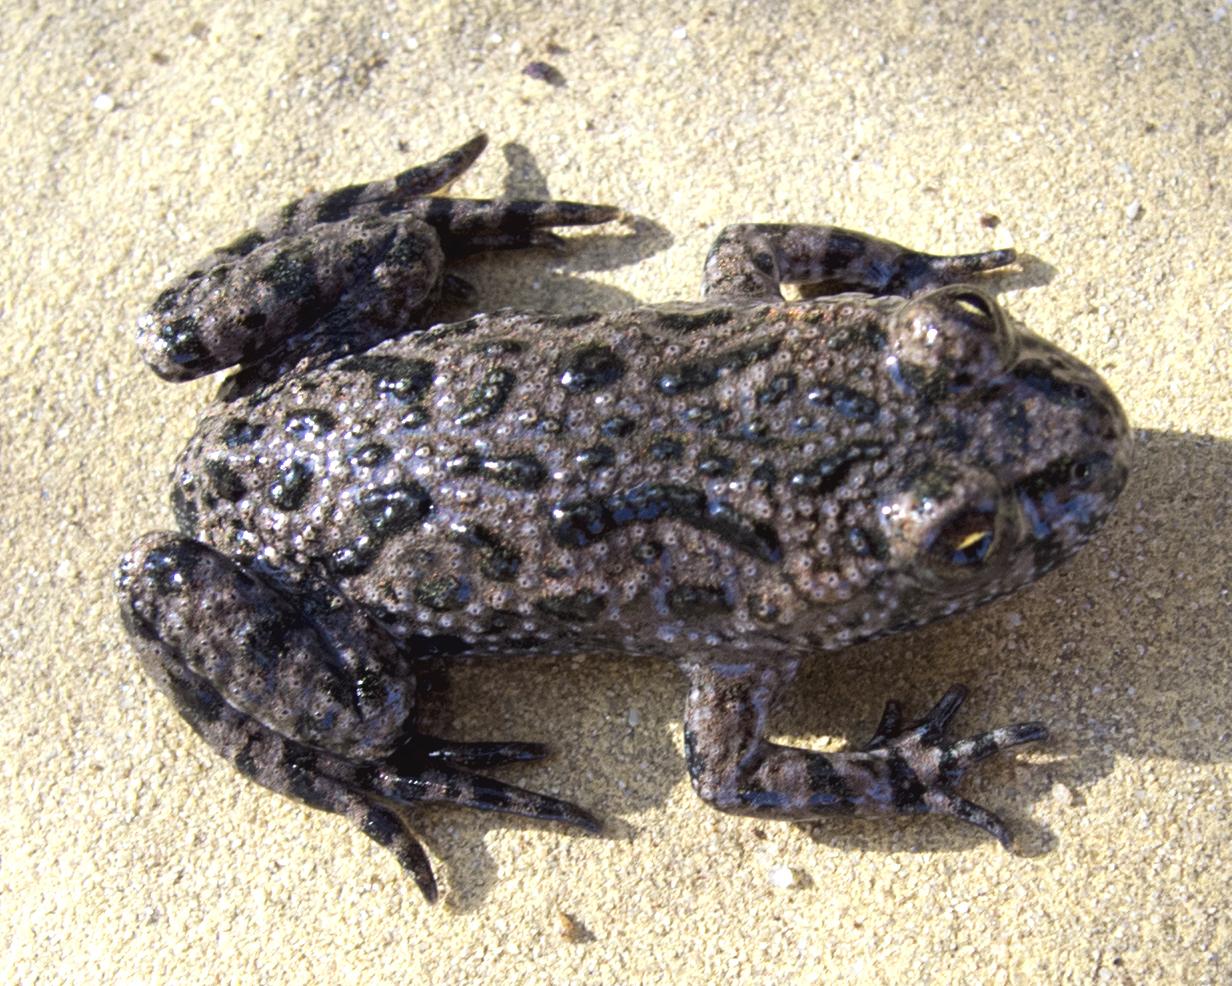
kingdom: Animalia
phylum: Chordata
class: Amphibia
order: Anura
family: Bombinatoridae
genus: Bombina
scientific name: Bombina bombina
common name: Fire-bellied toad
